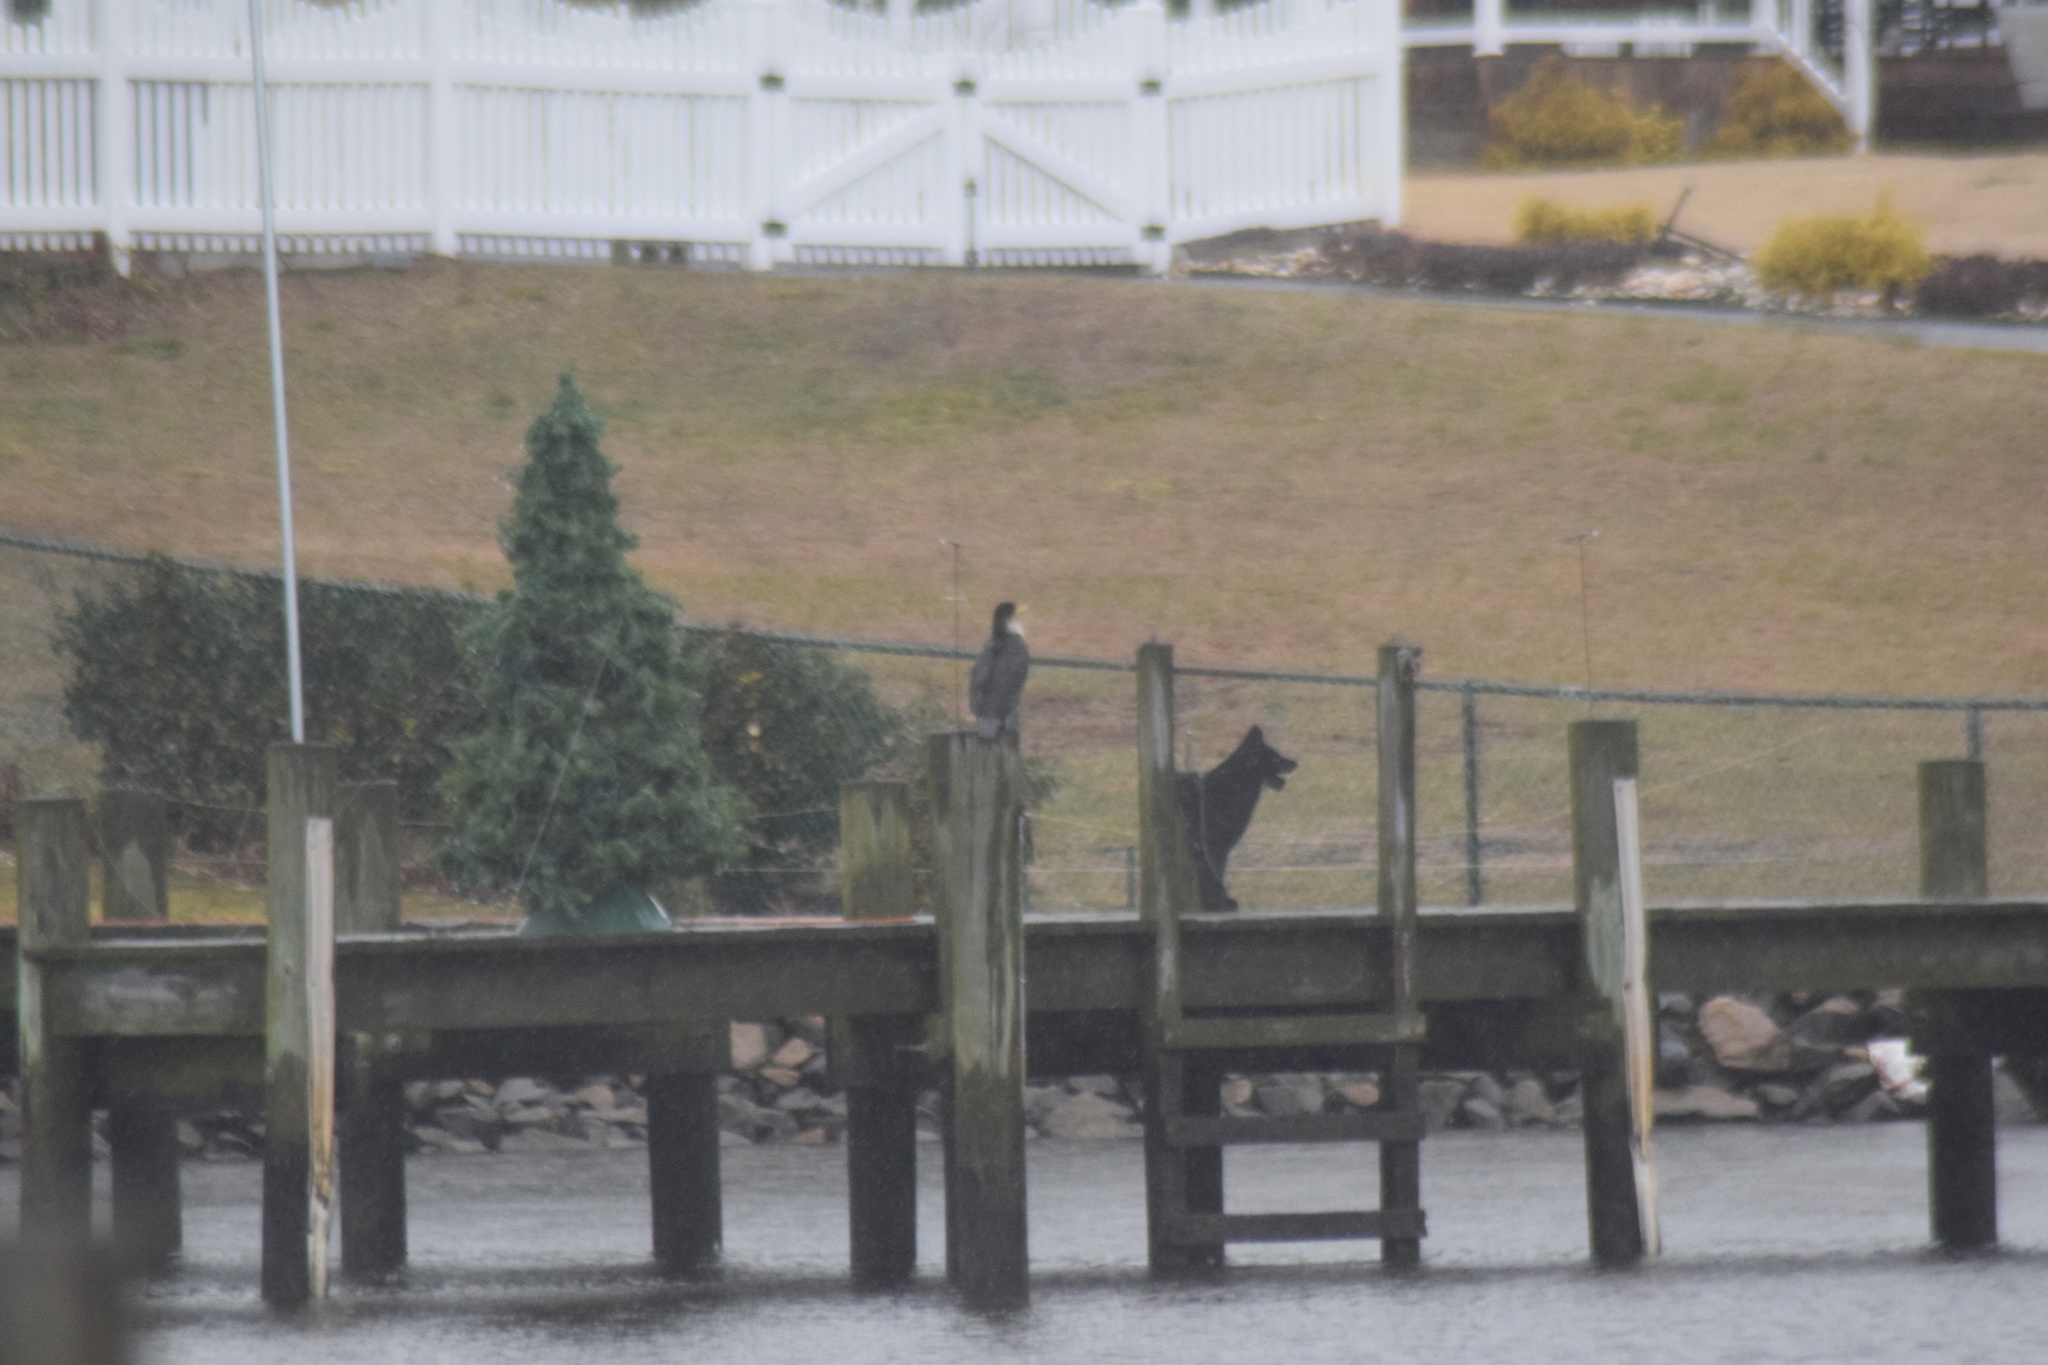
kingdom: Animalia
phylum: Chordata
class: Aves
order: Suliformes
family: Phalacrocoracidae
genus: Phalacrocorax
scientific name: Phalacrocorax auritus
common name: Double-crested cormorant
